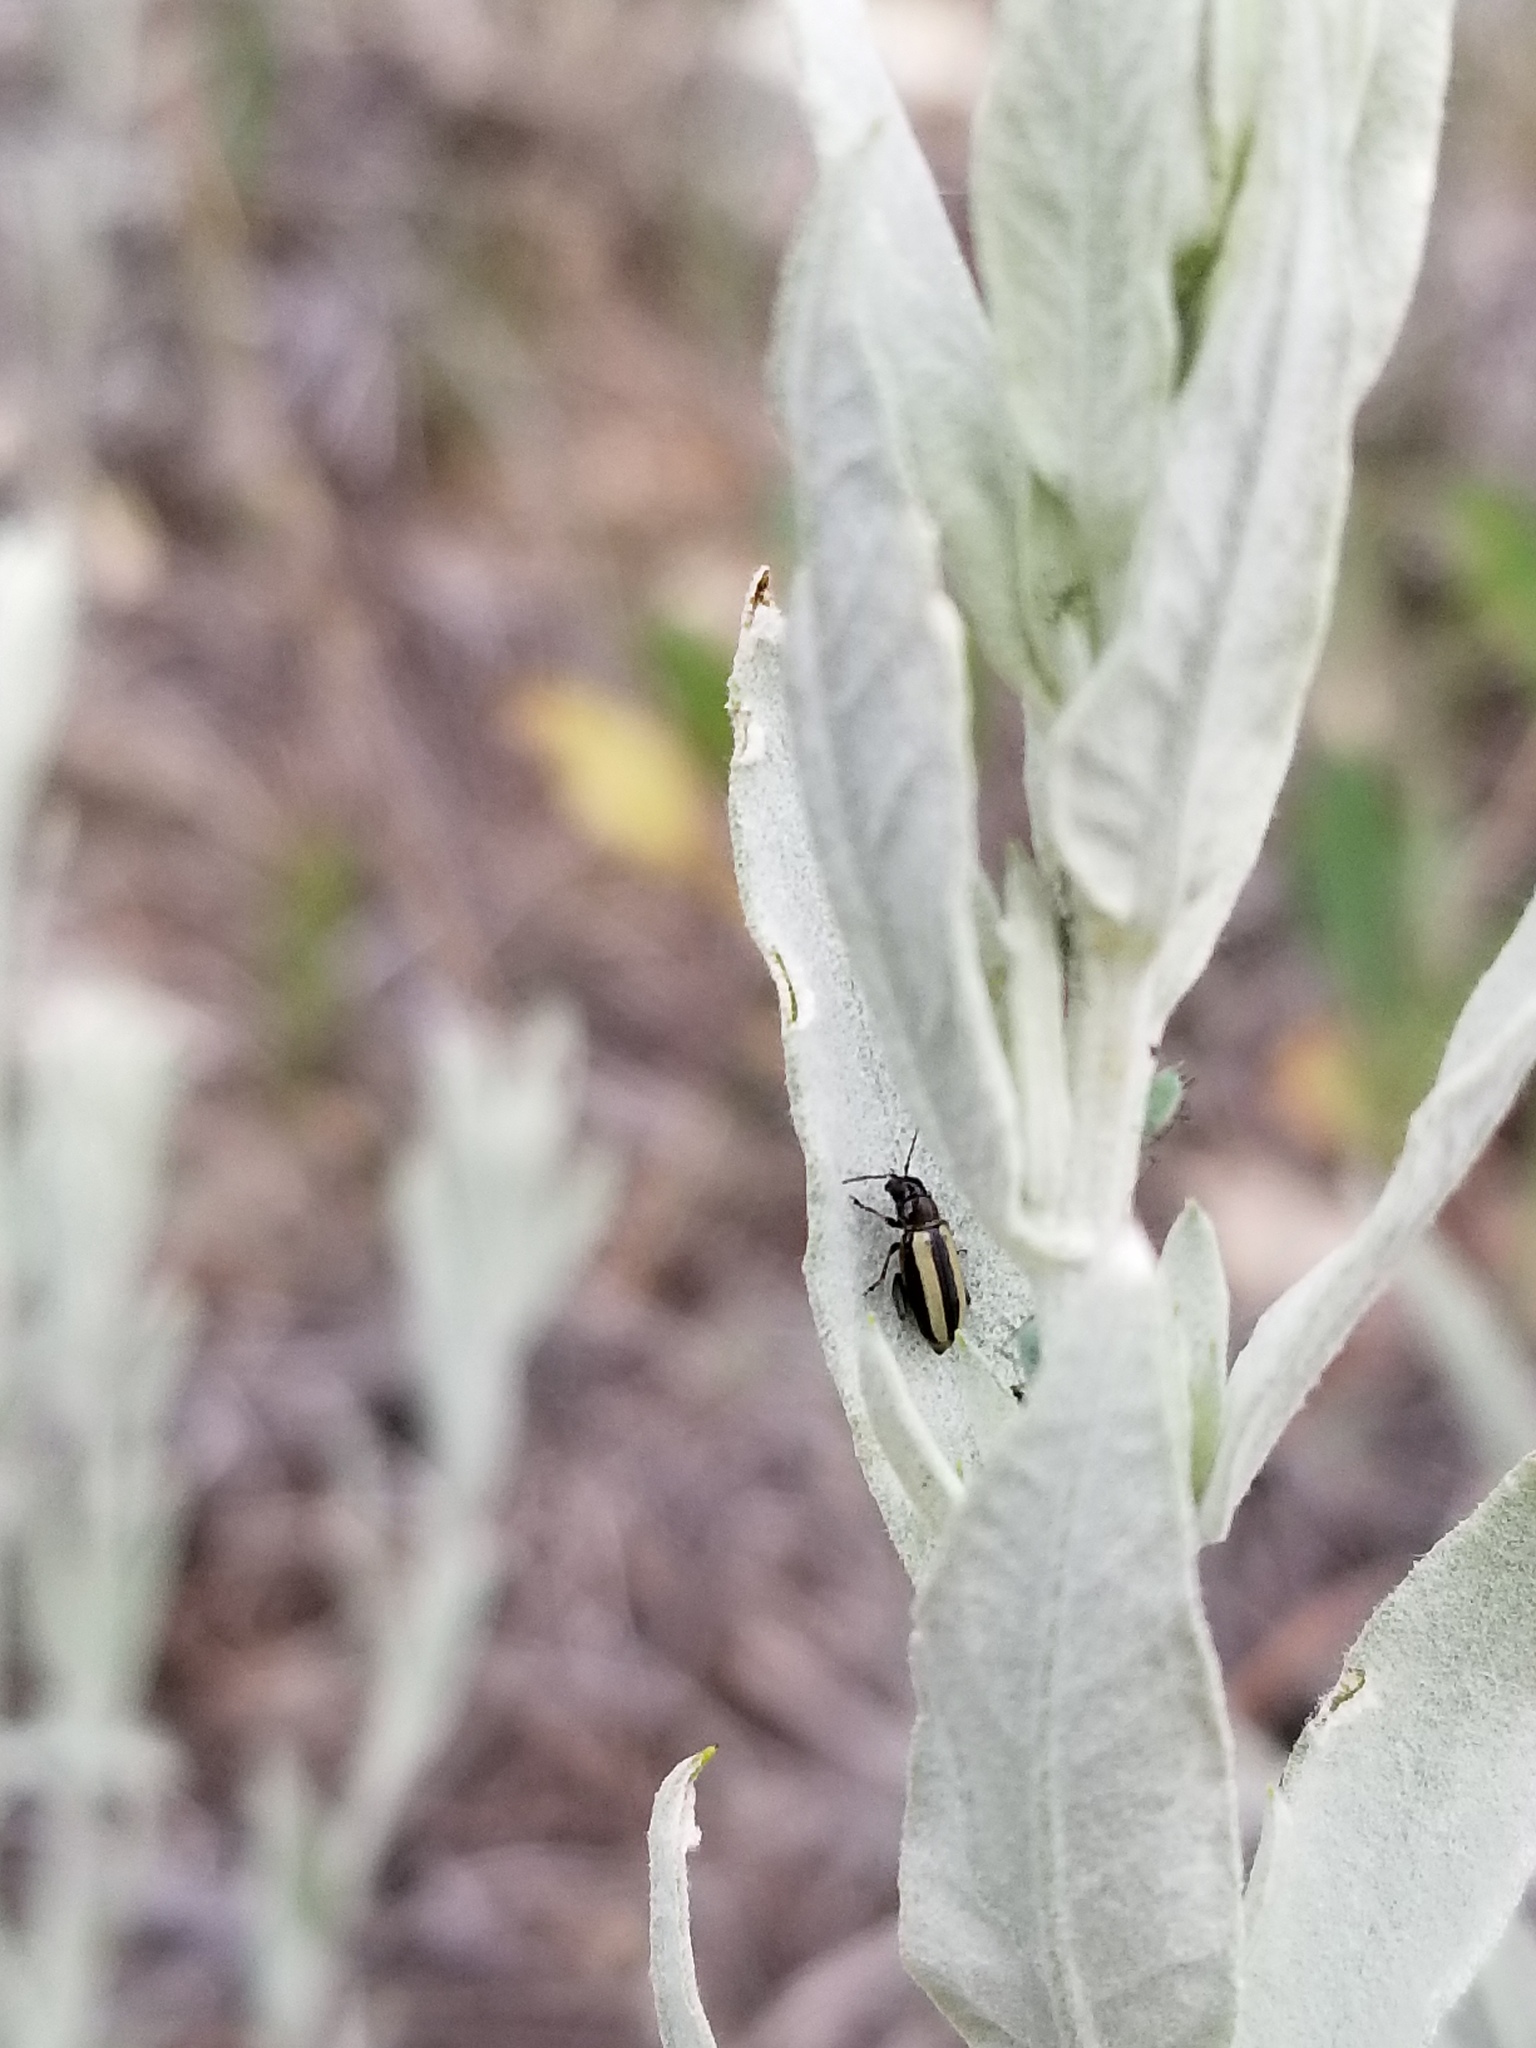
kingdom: Animalia
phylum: Arthropoda
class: Insecta
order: Coleoptera
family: Chrysomelidae
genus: Systena
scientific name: Systena bitaeniata
